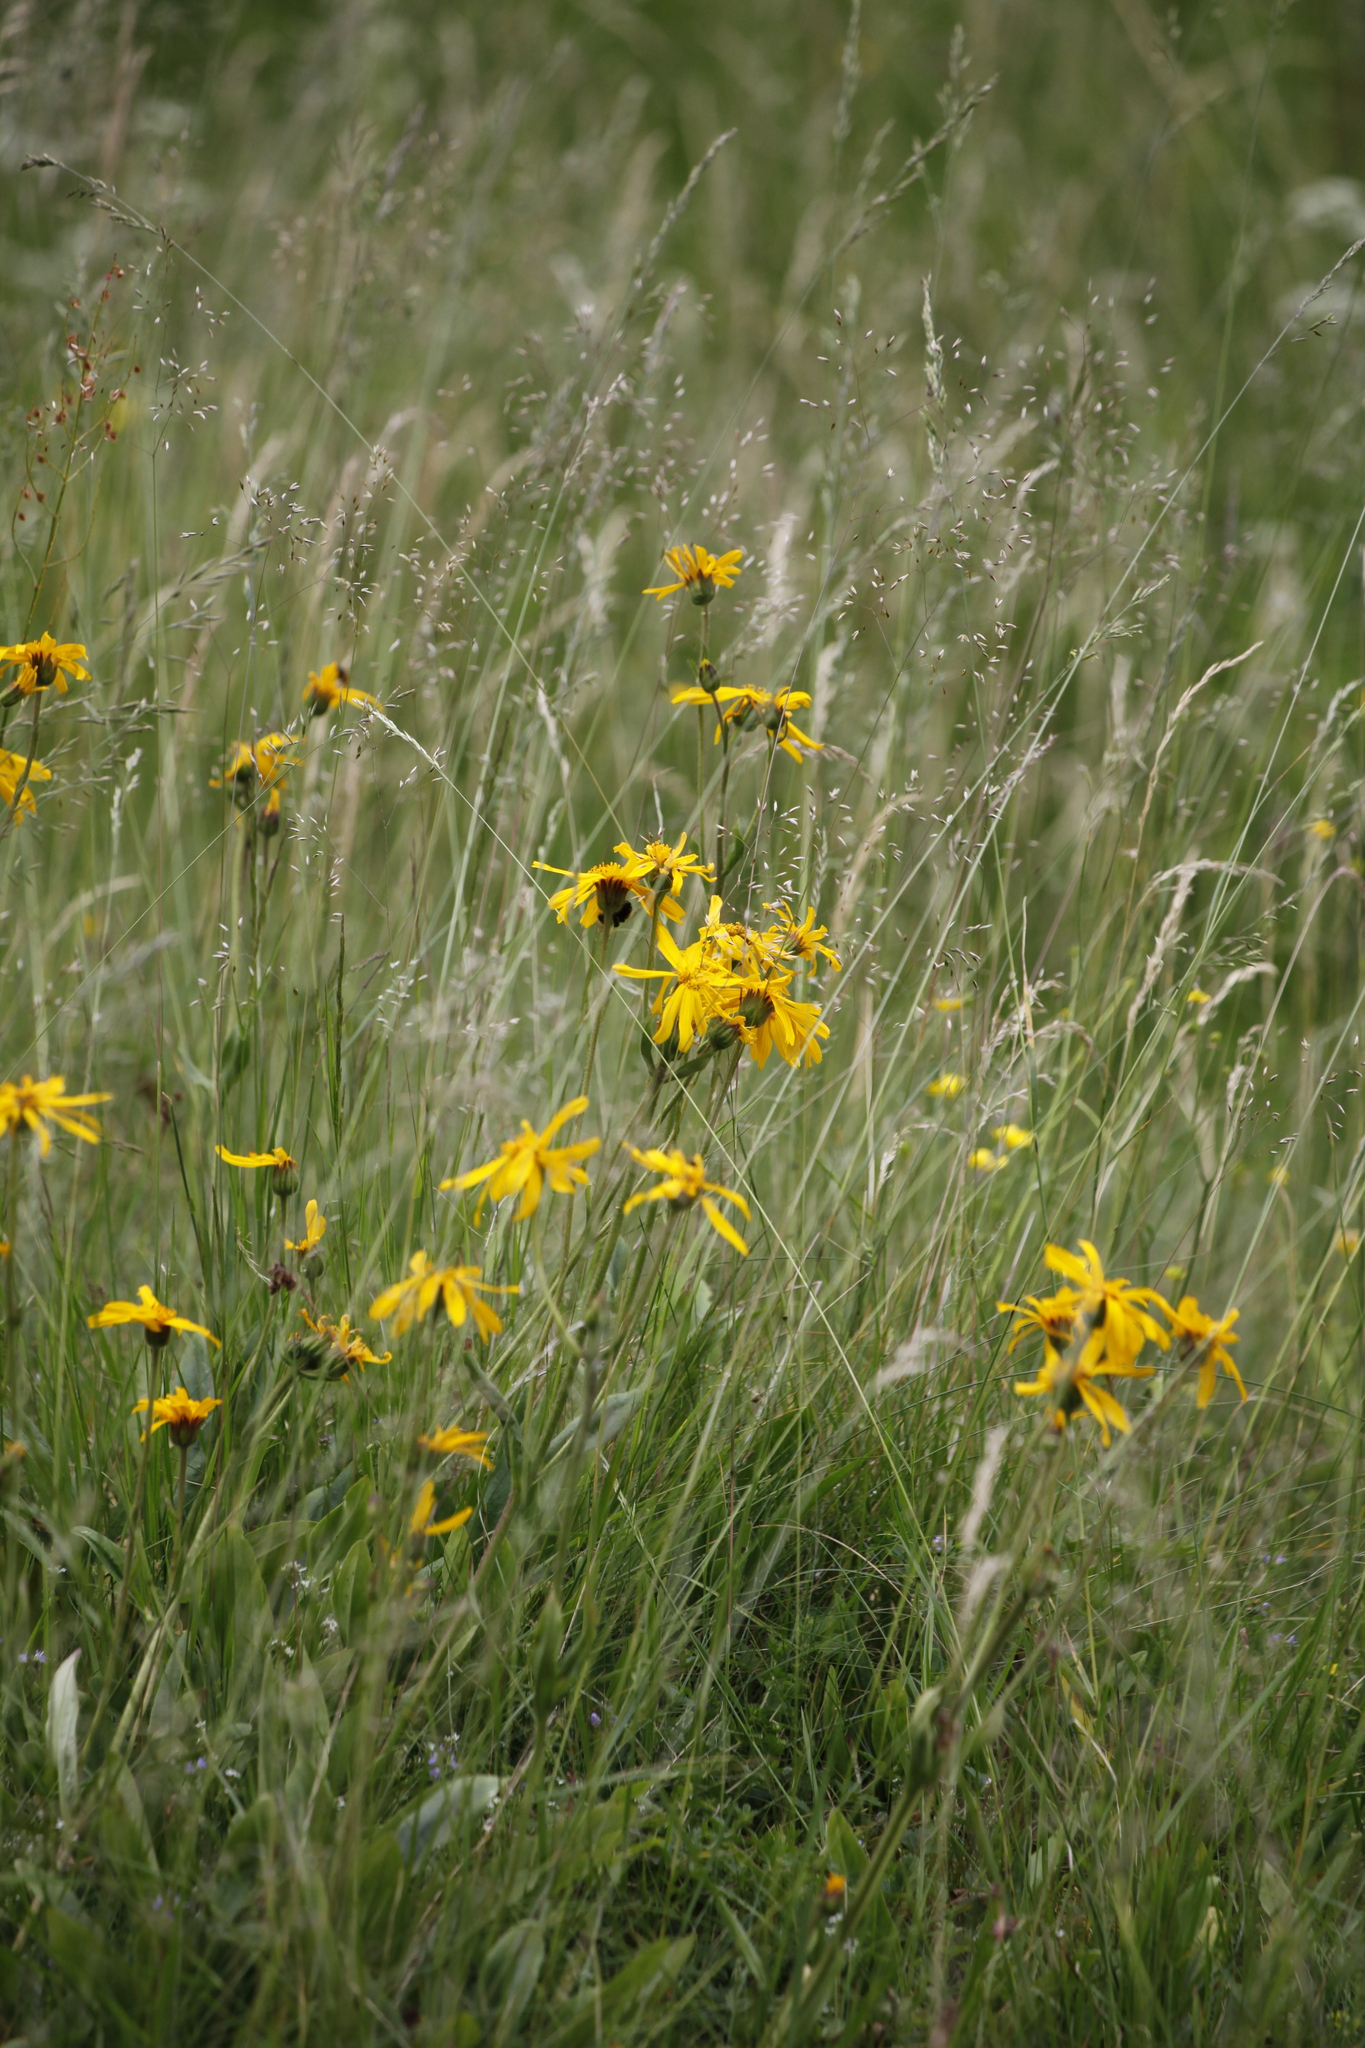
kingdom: Plantae
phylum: Tracheophyta
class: Magnoliopsida
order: Asterales
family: Asteraceae
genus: Arnica
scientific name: Arnica montana
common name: Leopard's bane
